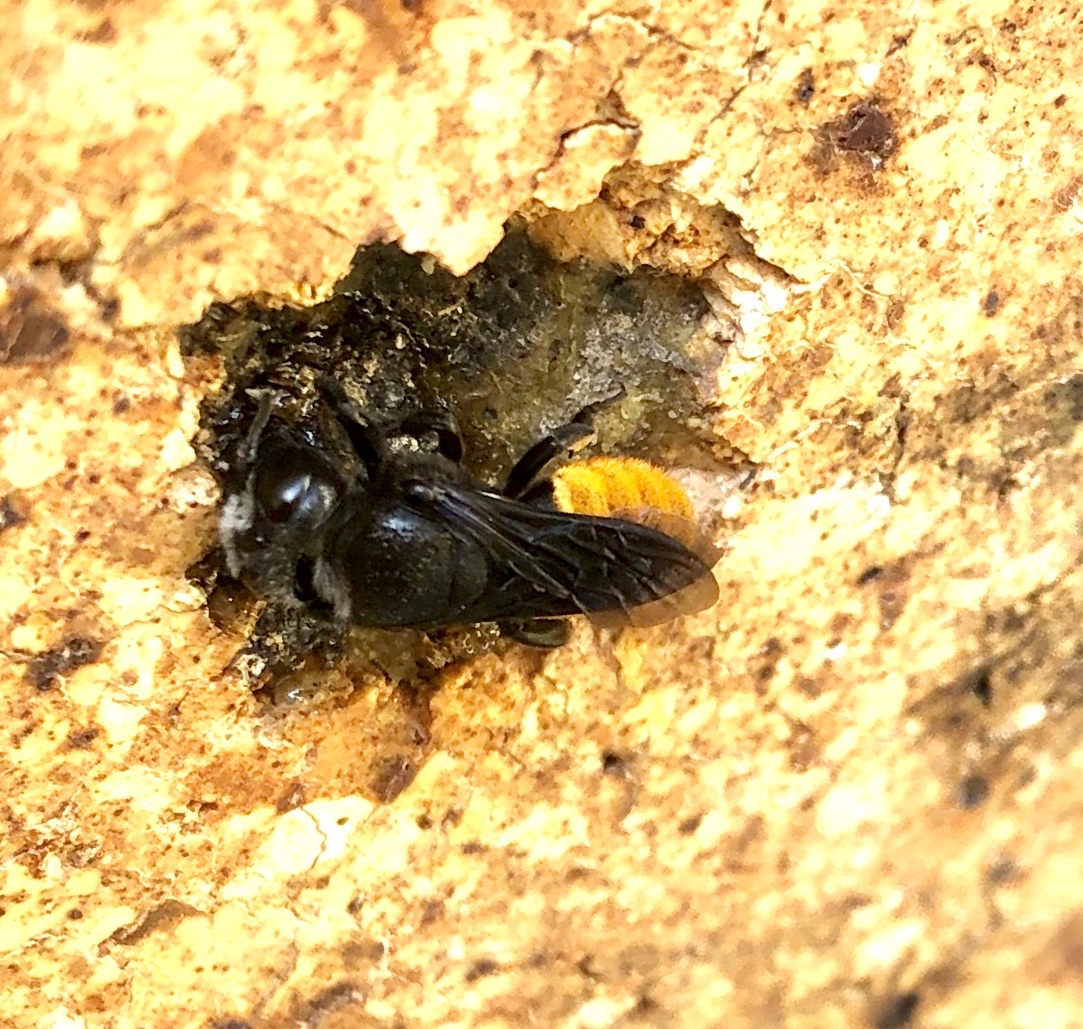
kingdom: Animalia
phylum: Arthropoda
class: Insecta
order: Hymenoptera
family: Megachilidae
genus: Megachile
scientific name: Megachile mystaceana
